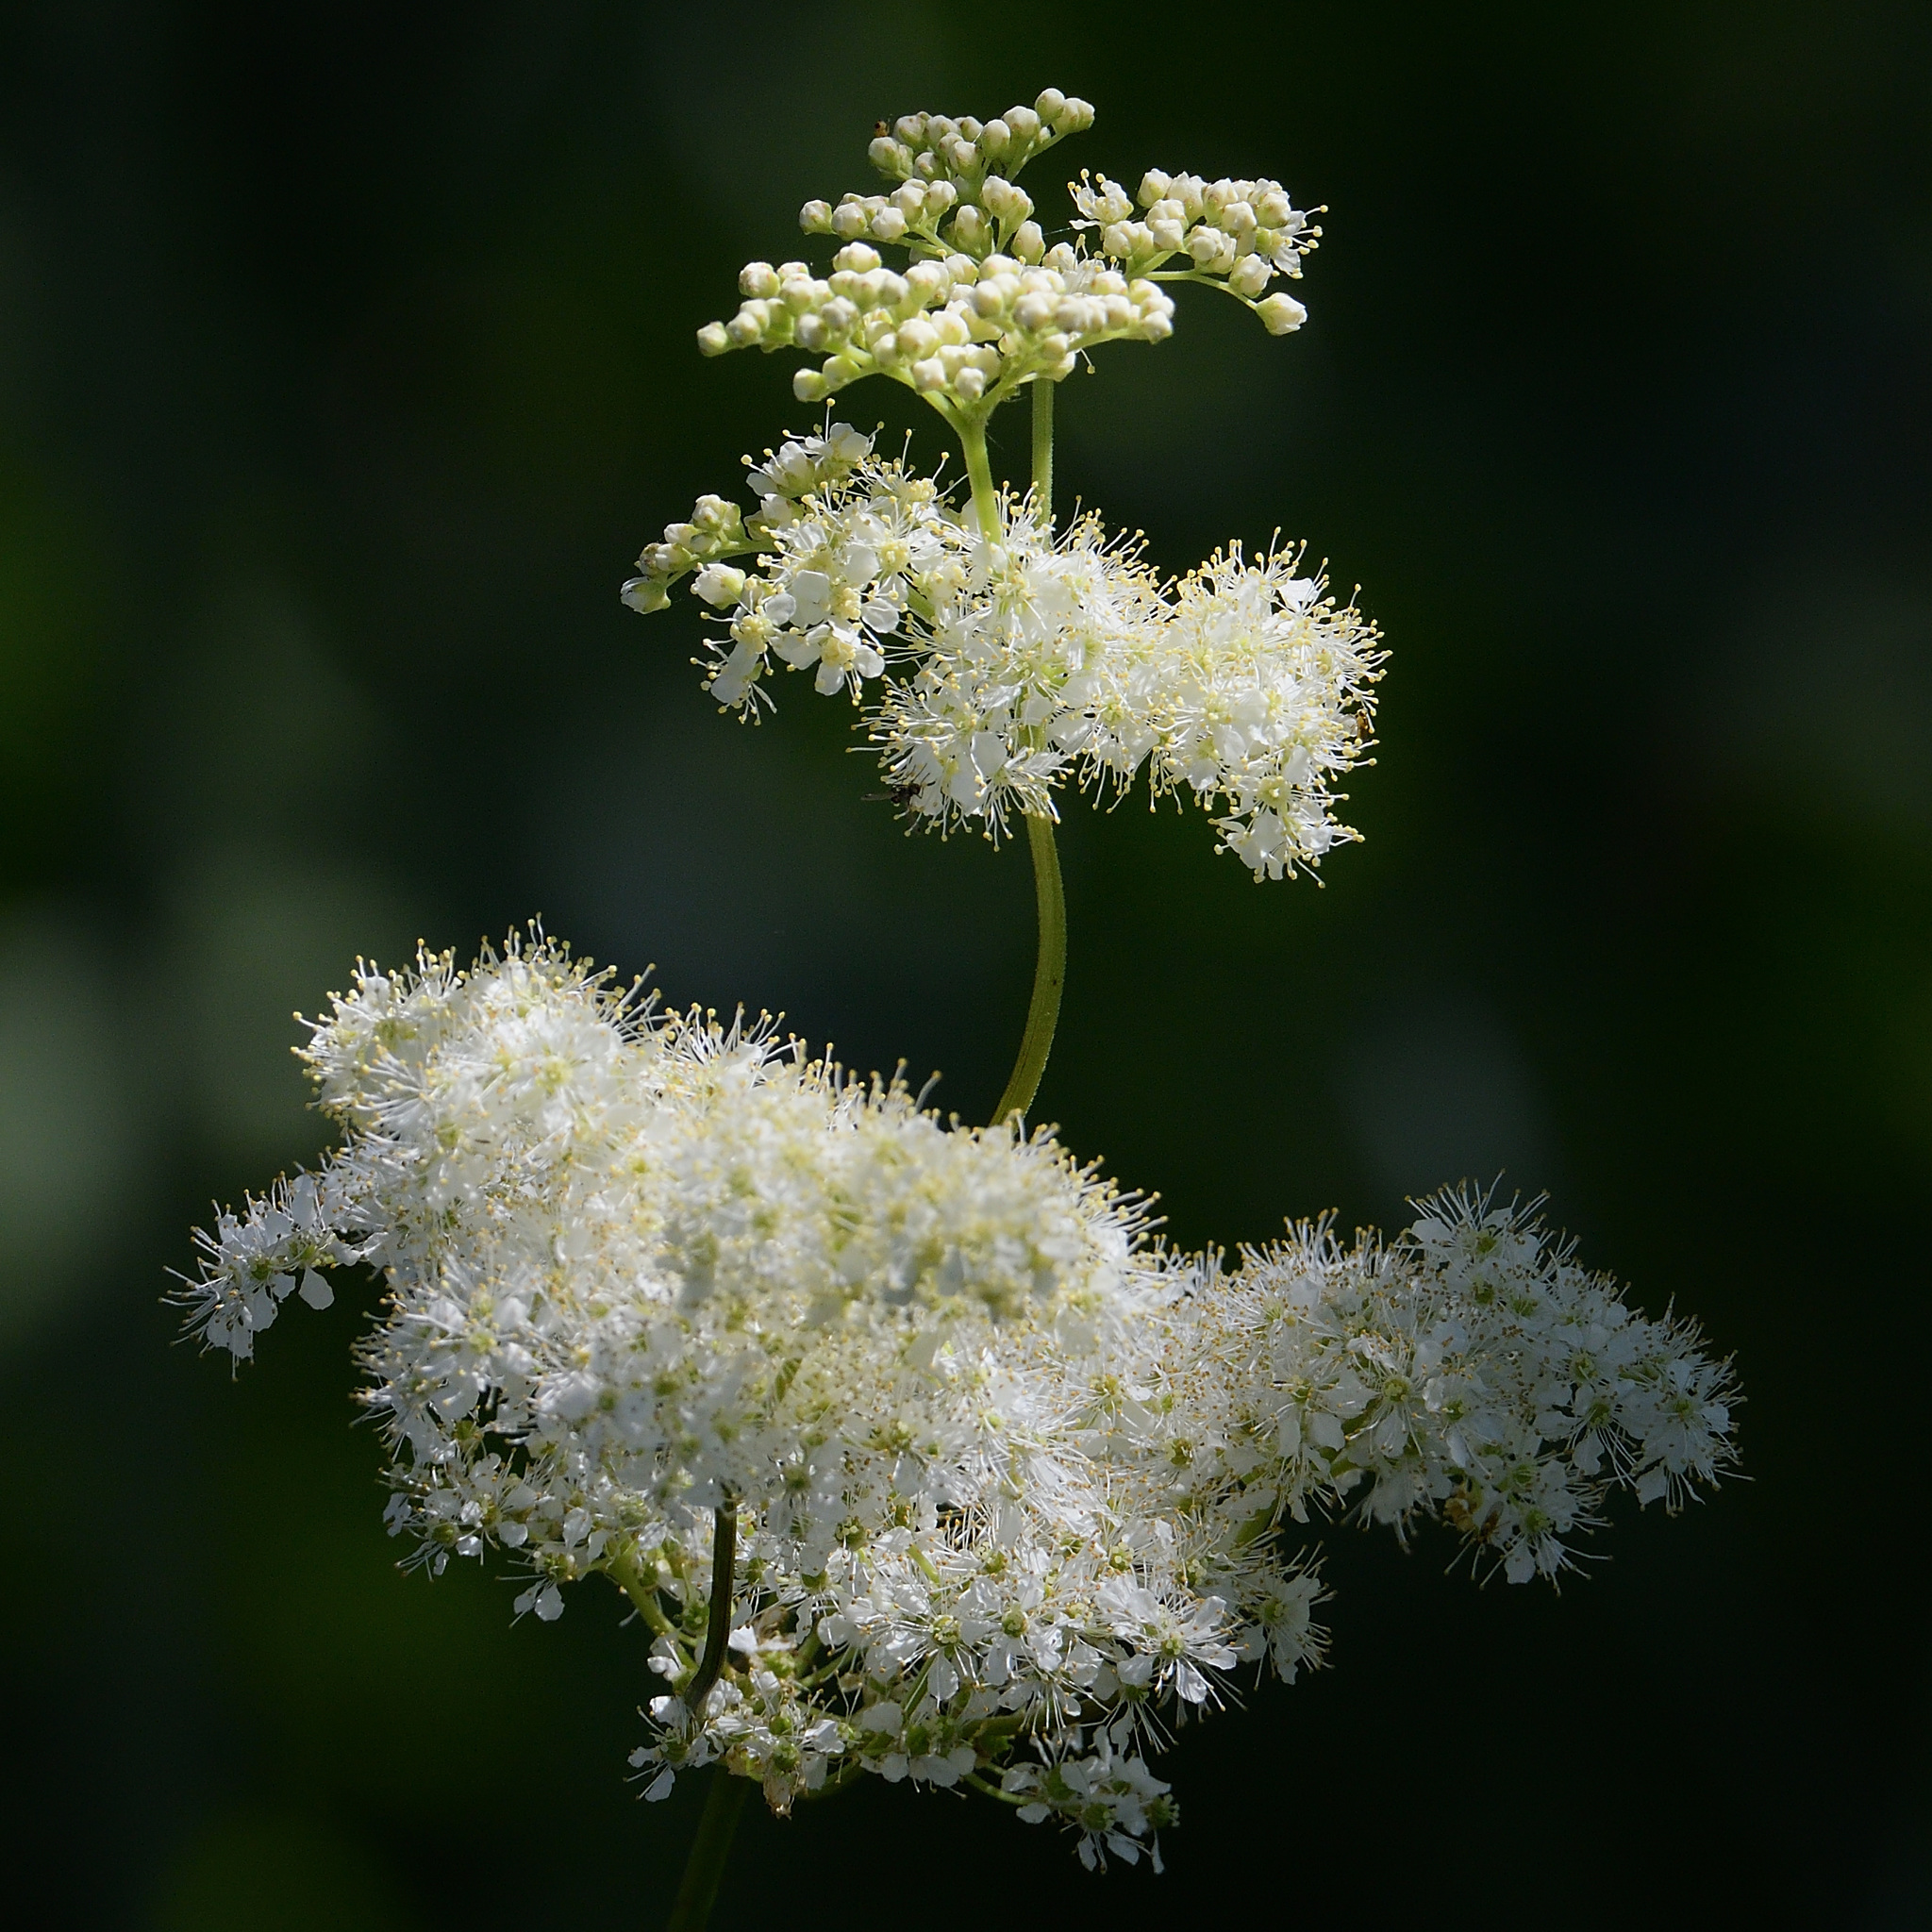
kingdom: Plantae
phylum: Tracheophyta
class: Magnoliopsida
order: Rosales
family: Rosaceae
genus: Filipendula
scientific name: Filipendula ulmaria
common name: Meadowsweet
